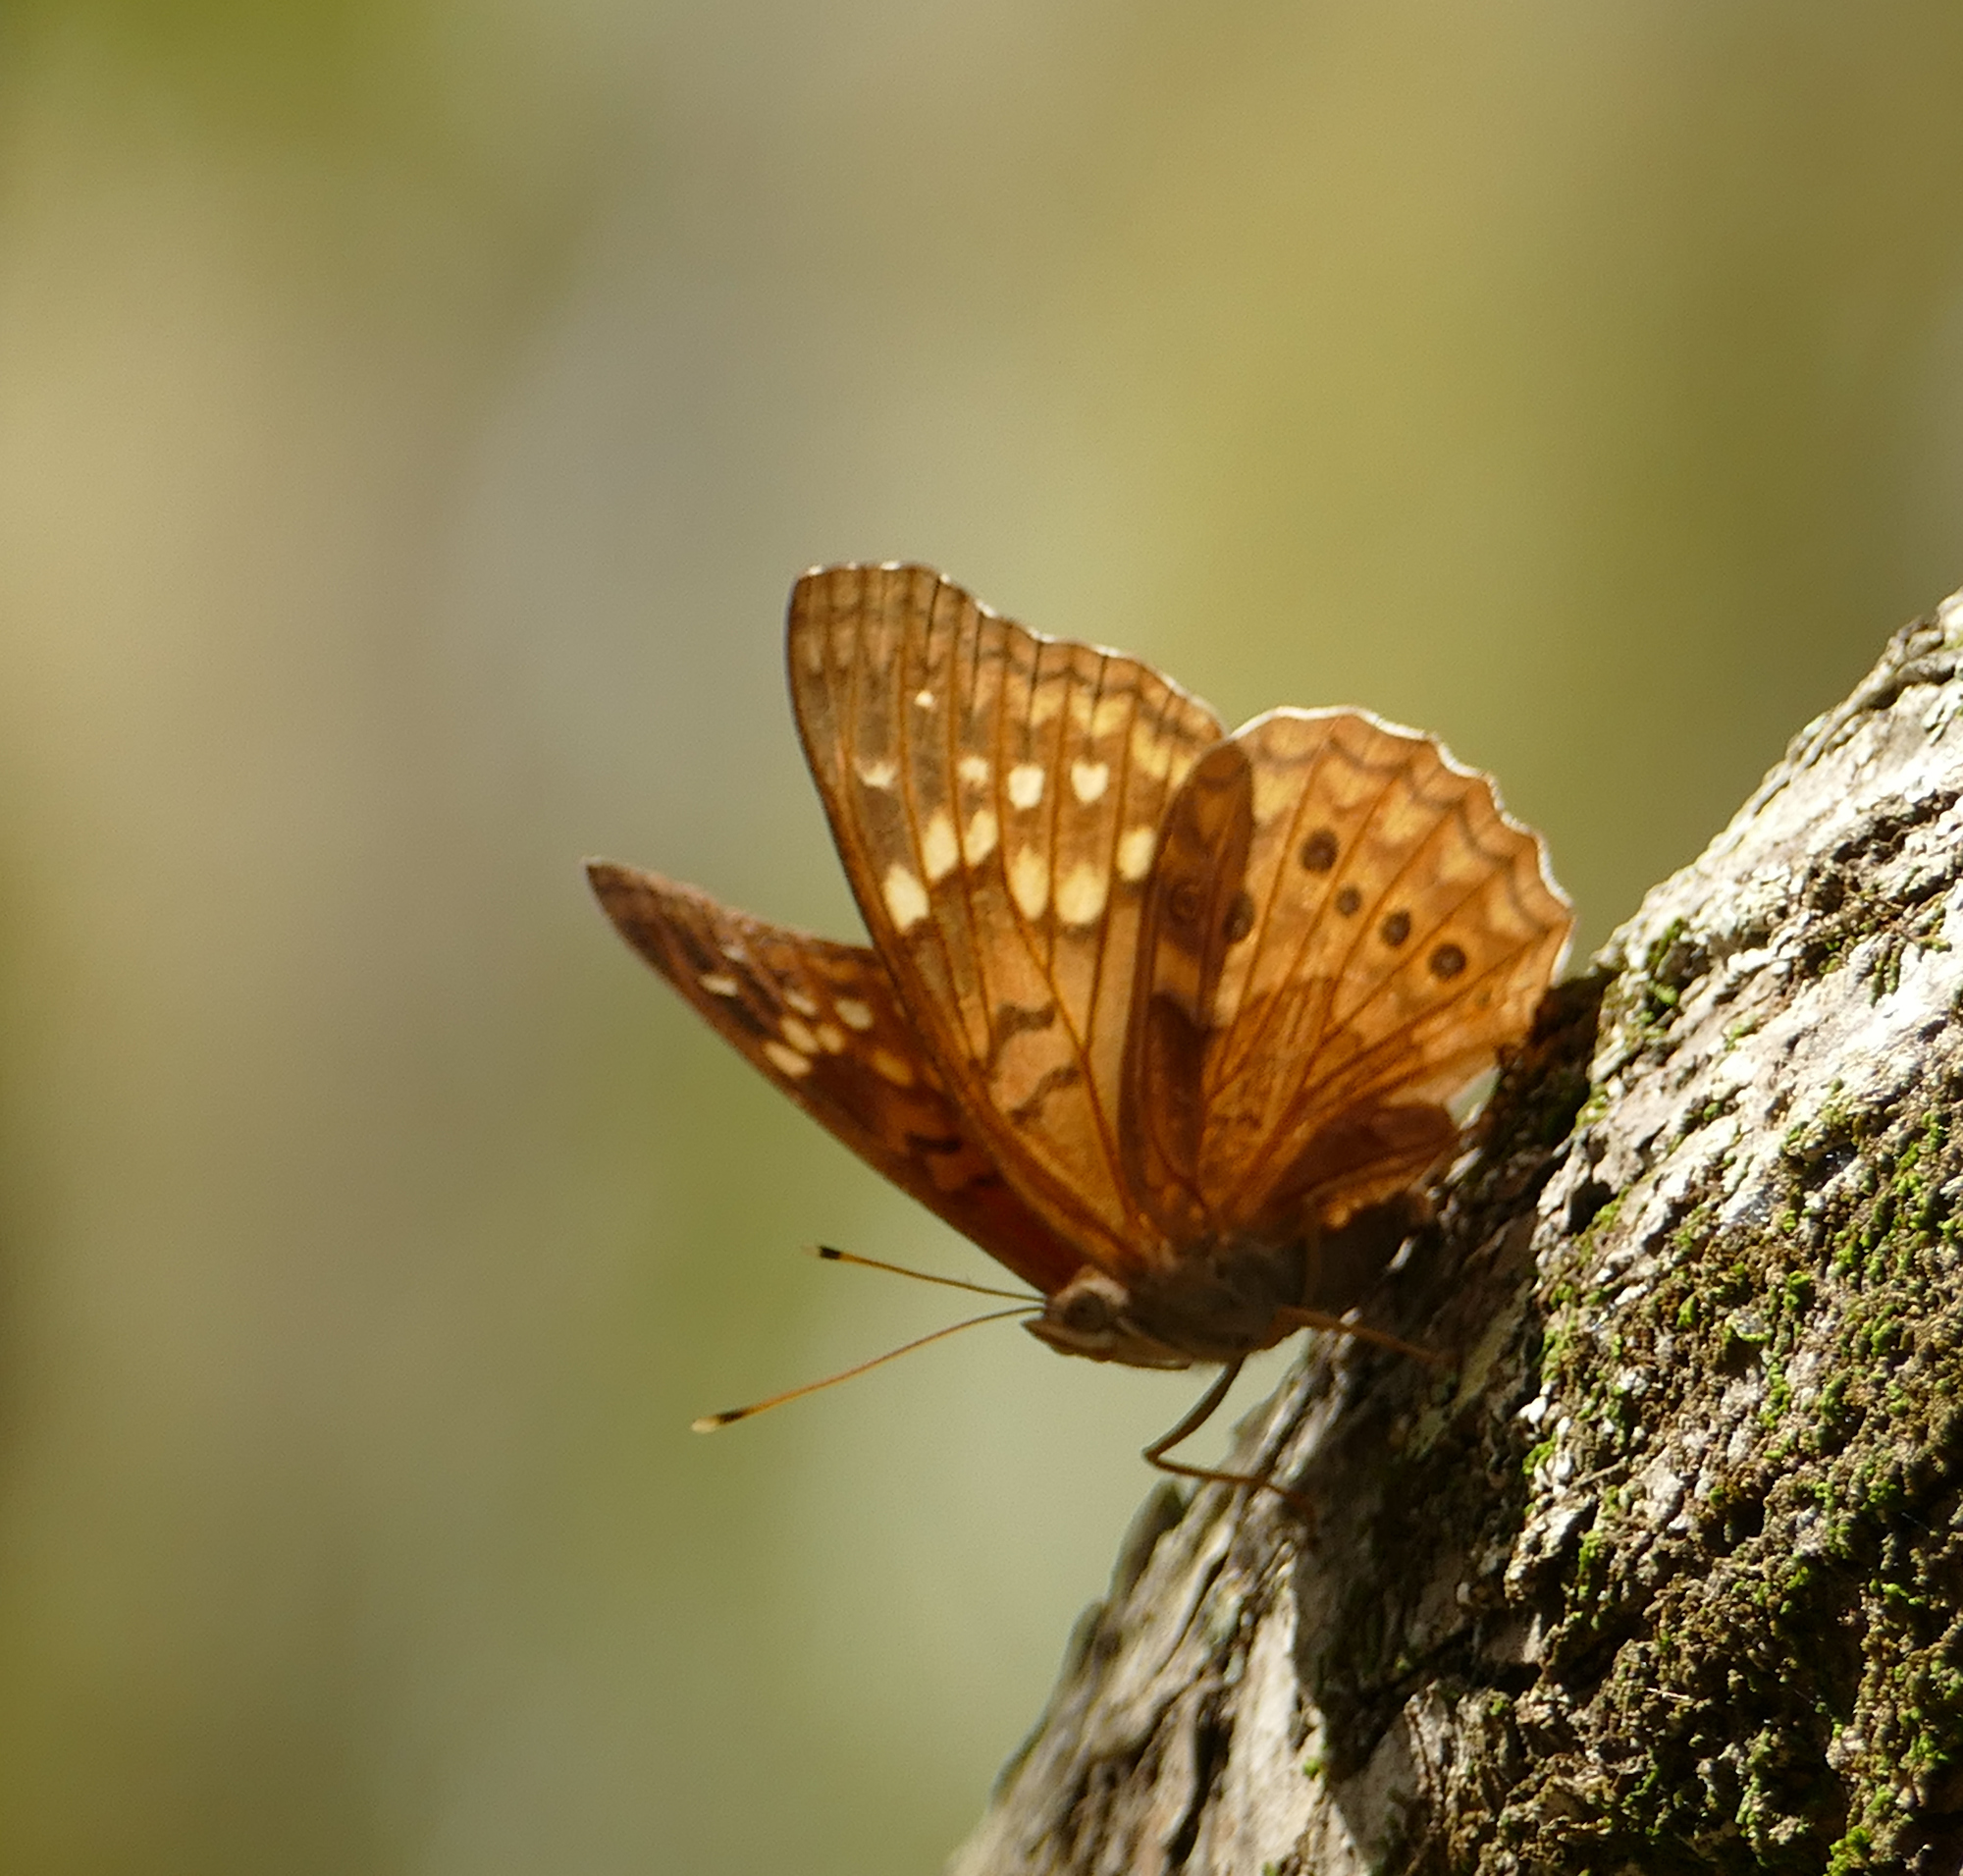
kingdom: Animalia
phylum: Arthropoda
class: Insecta
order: Lepidoptera
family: Nymphalidae
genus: Asterocampa
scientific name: Asterocampa clyton
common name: Tawny emperor
